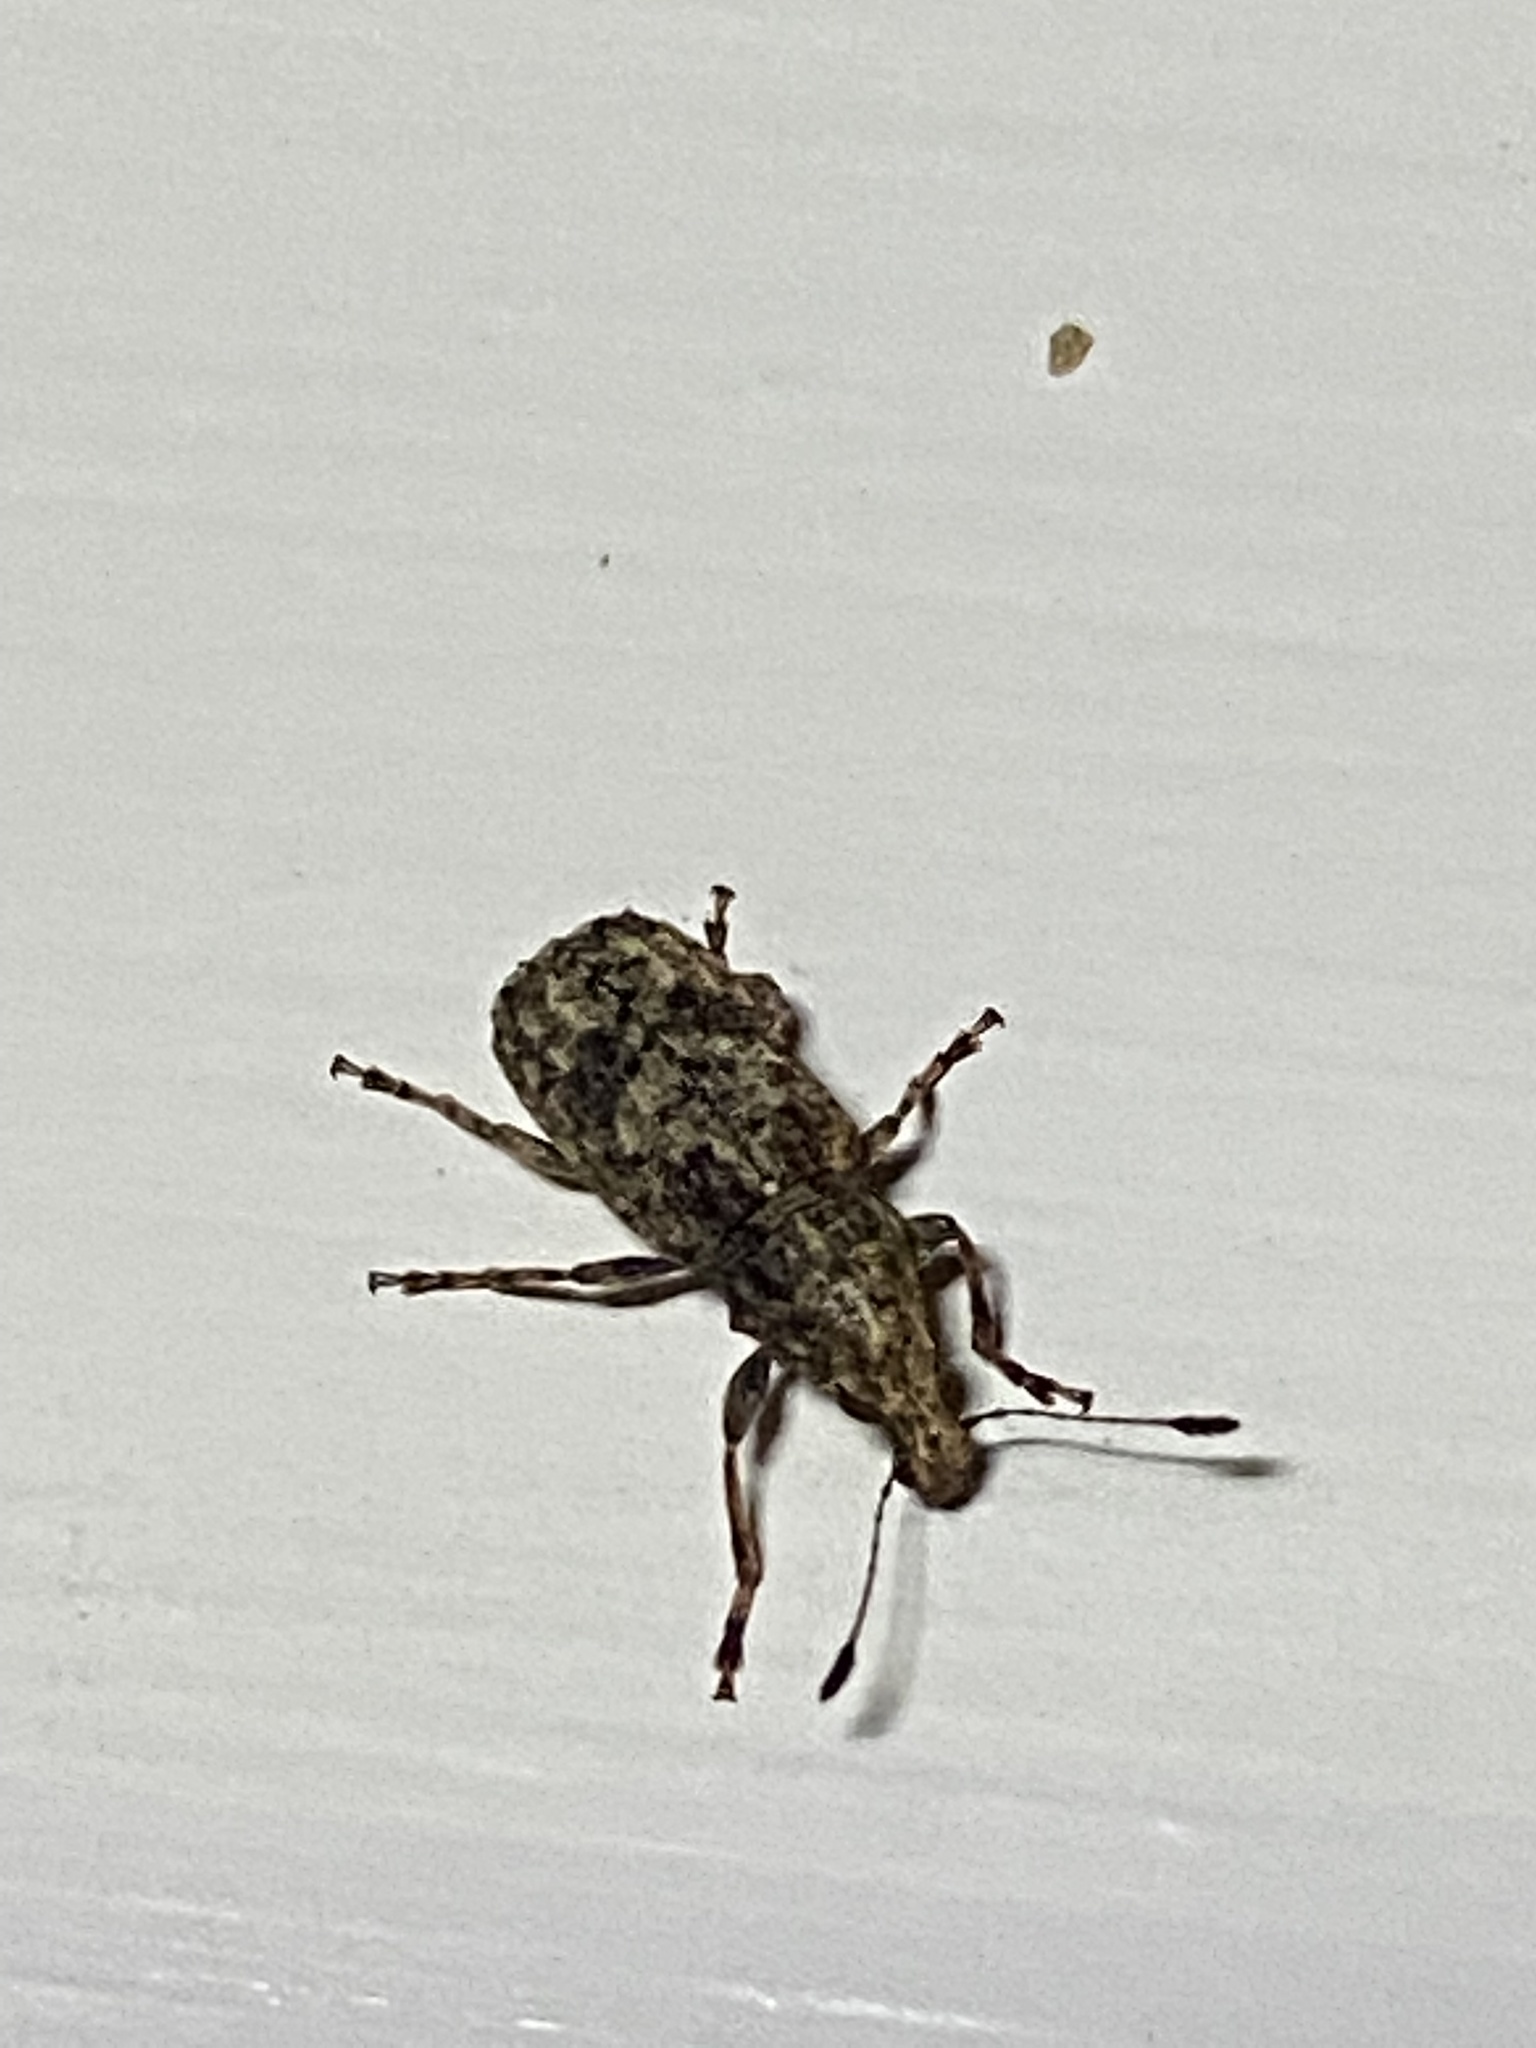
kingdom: Animalia
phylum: Arthropoda
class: Insecta
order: Coleoptera
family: Anthribidae
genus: Meconemus
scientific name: Meconemus infuscatus
